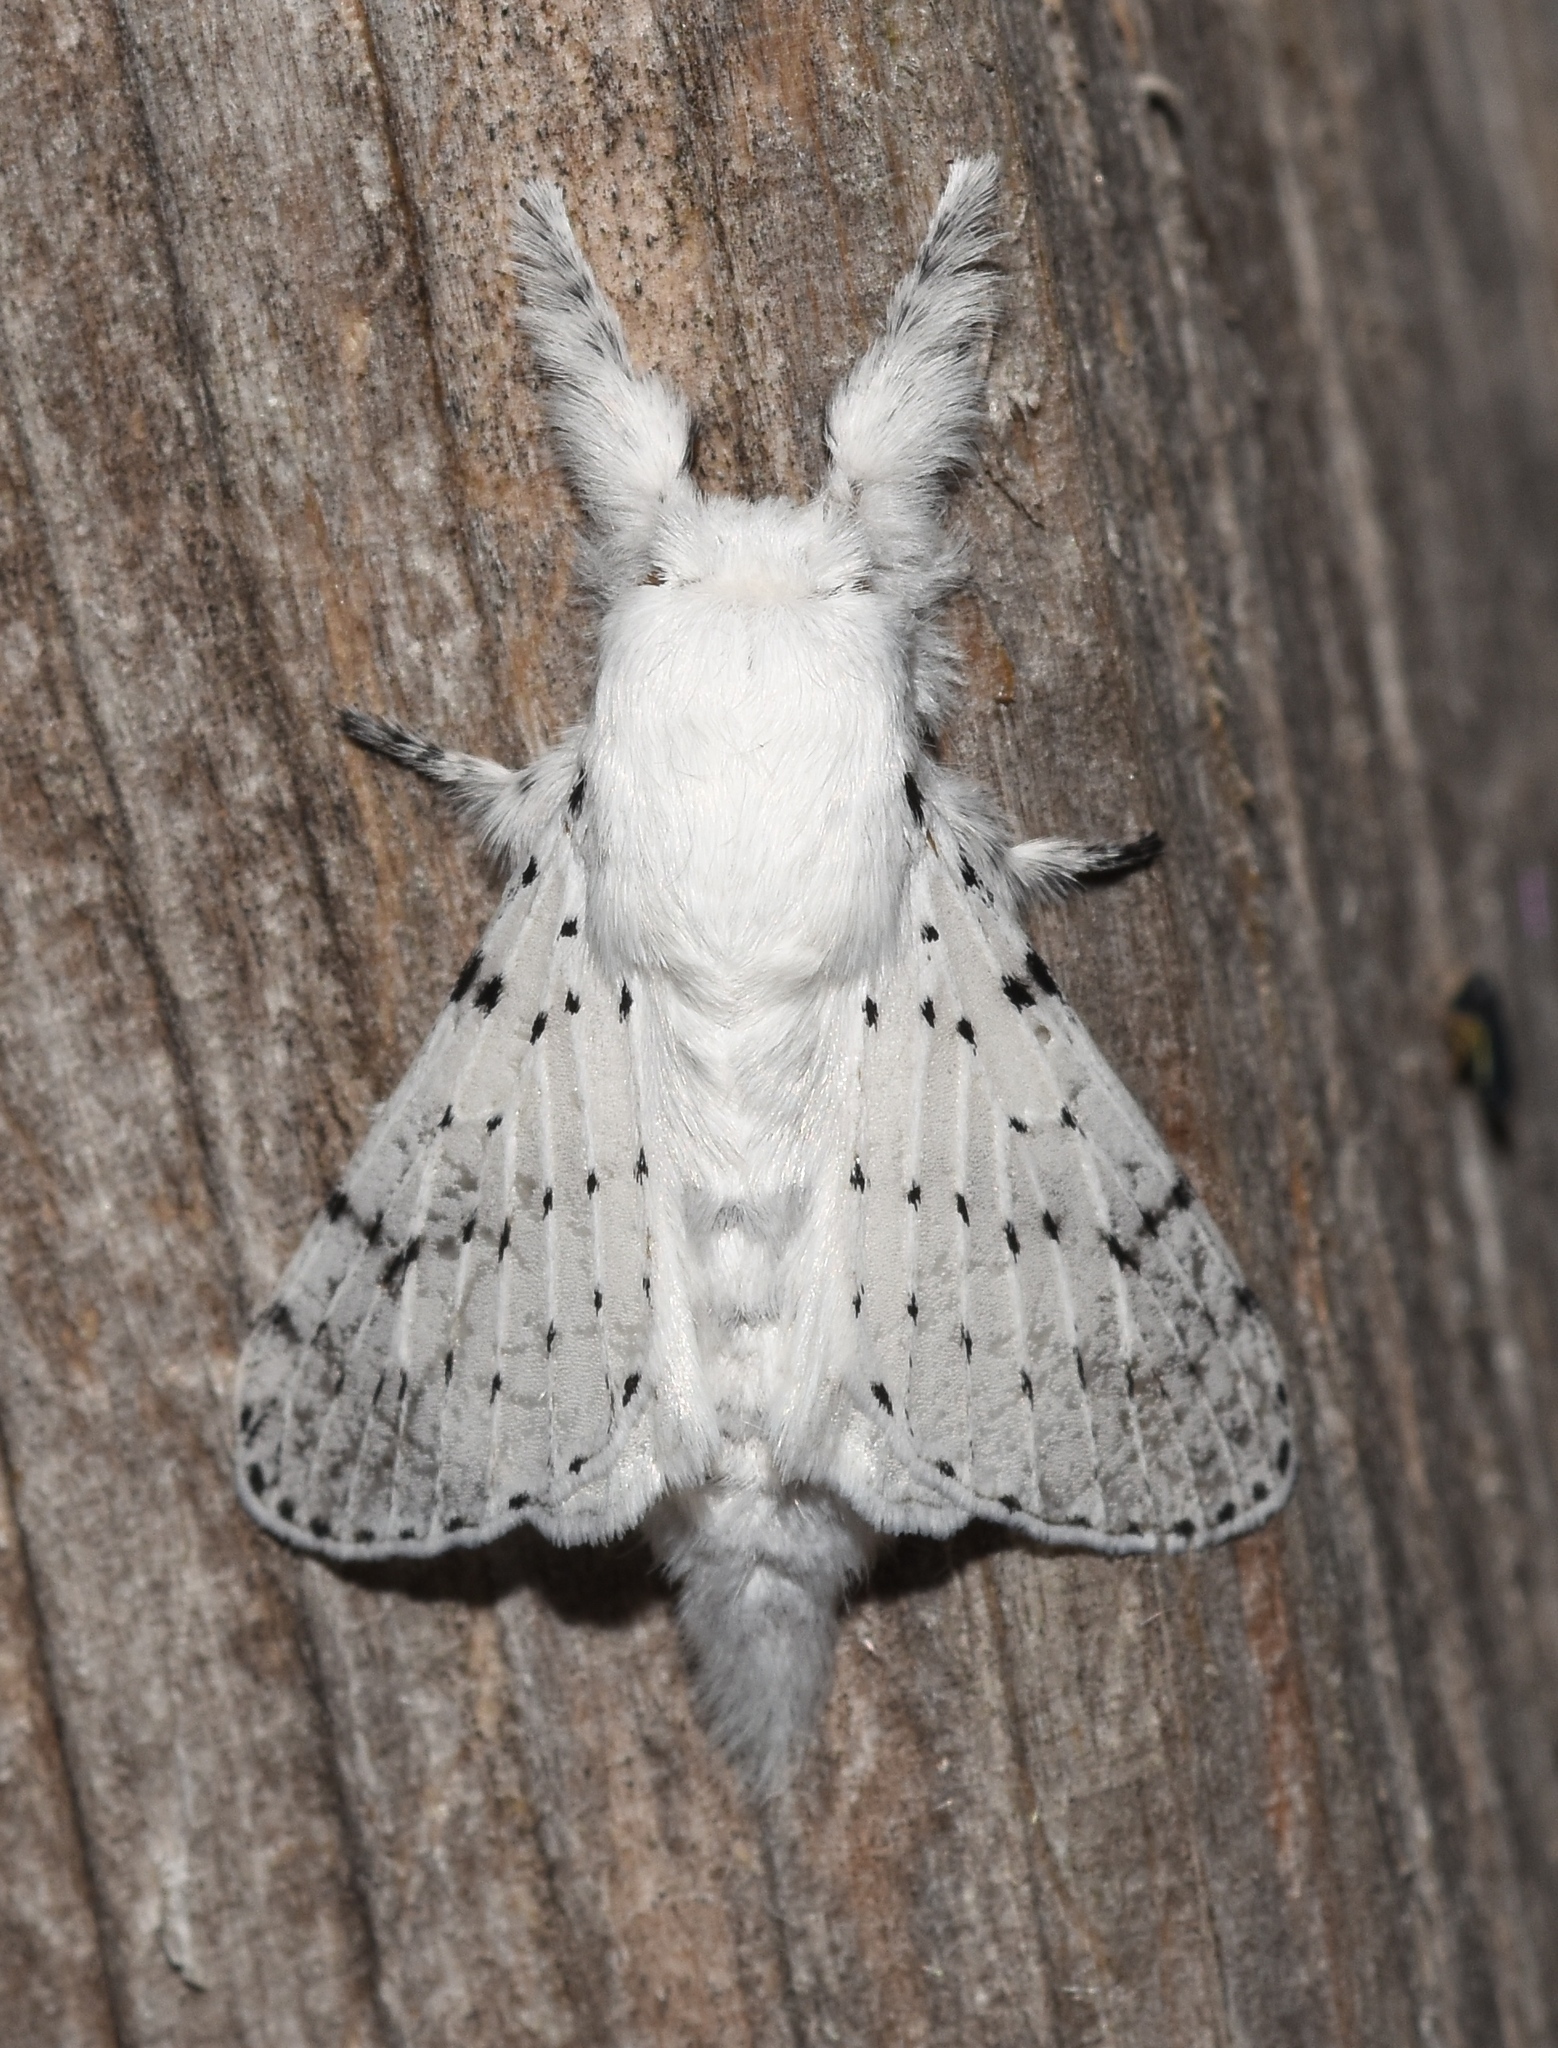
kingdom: Animalia
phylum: Arthropoda
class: Insecta
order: Lepidoptera
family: Lasiocampidae
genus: Artace
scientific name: Artace cribrarius
